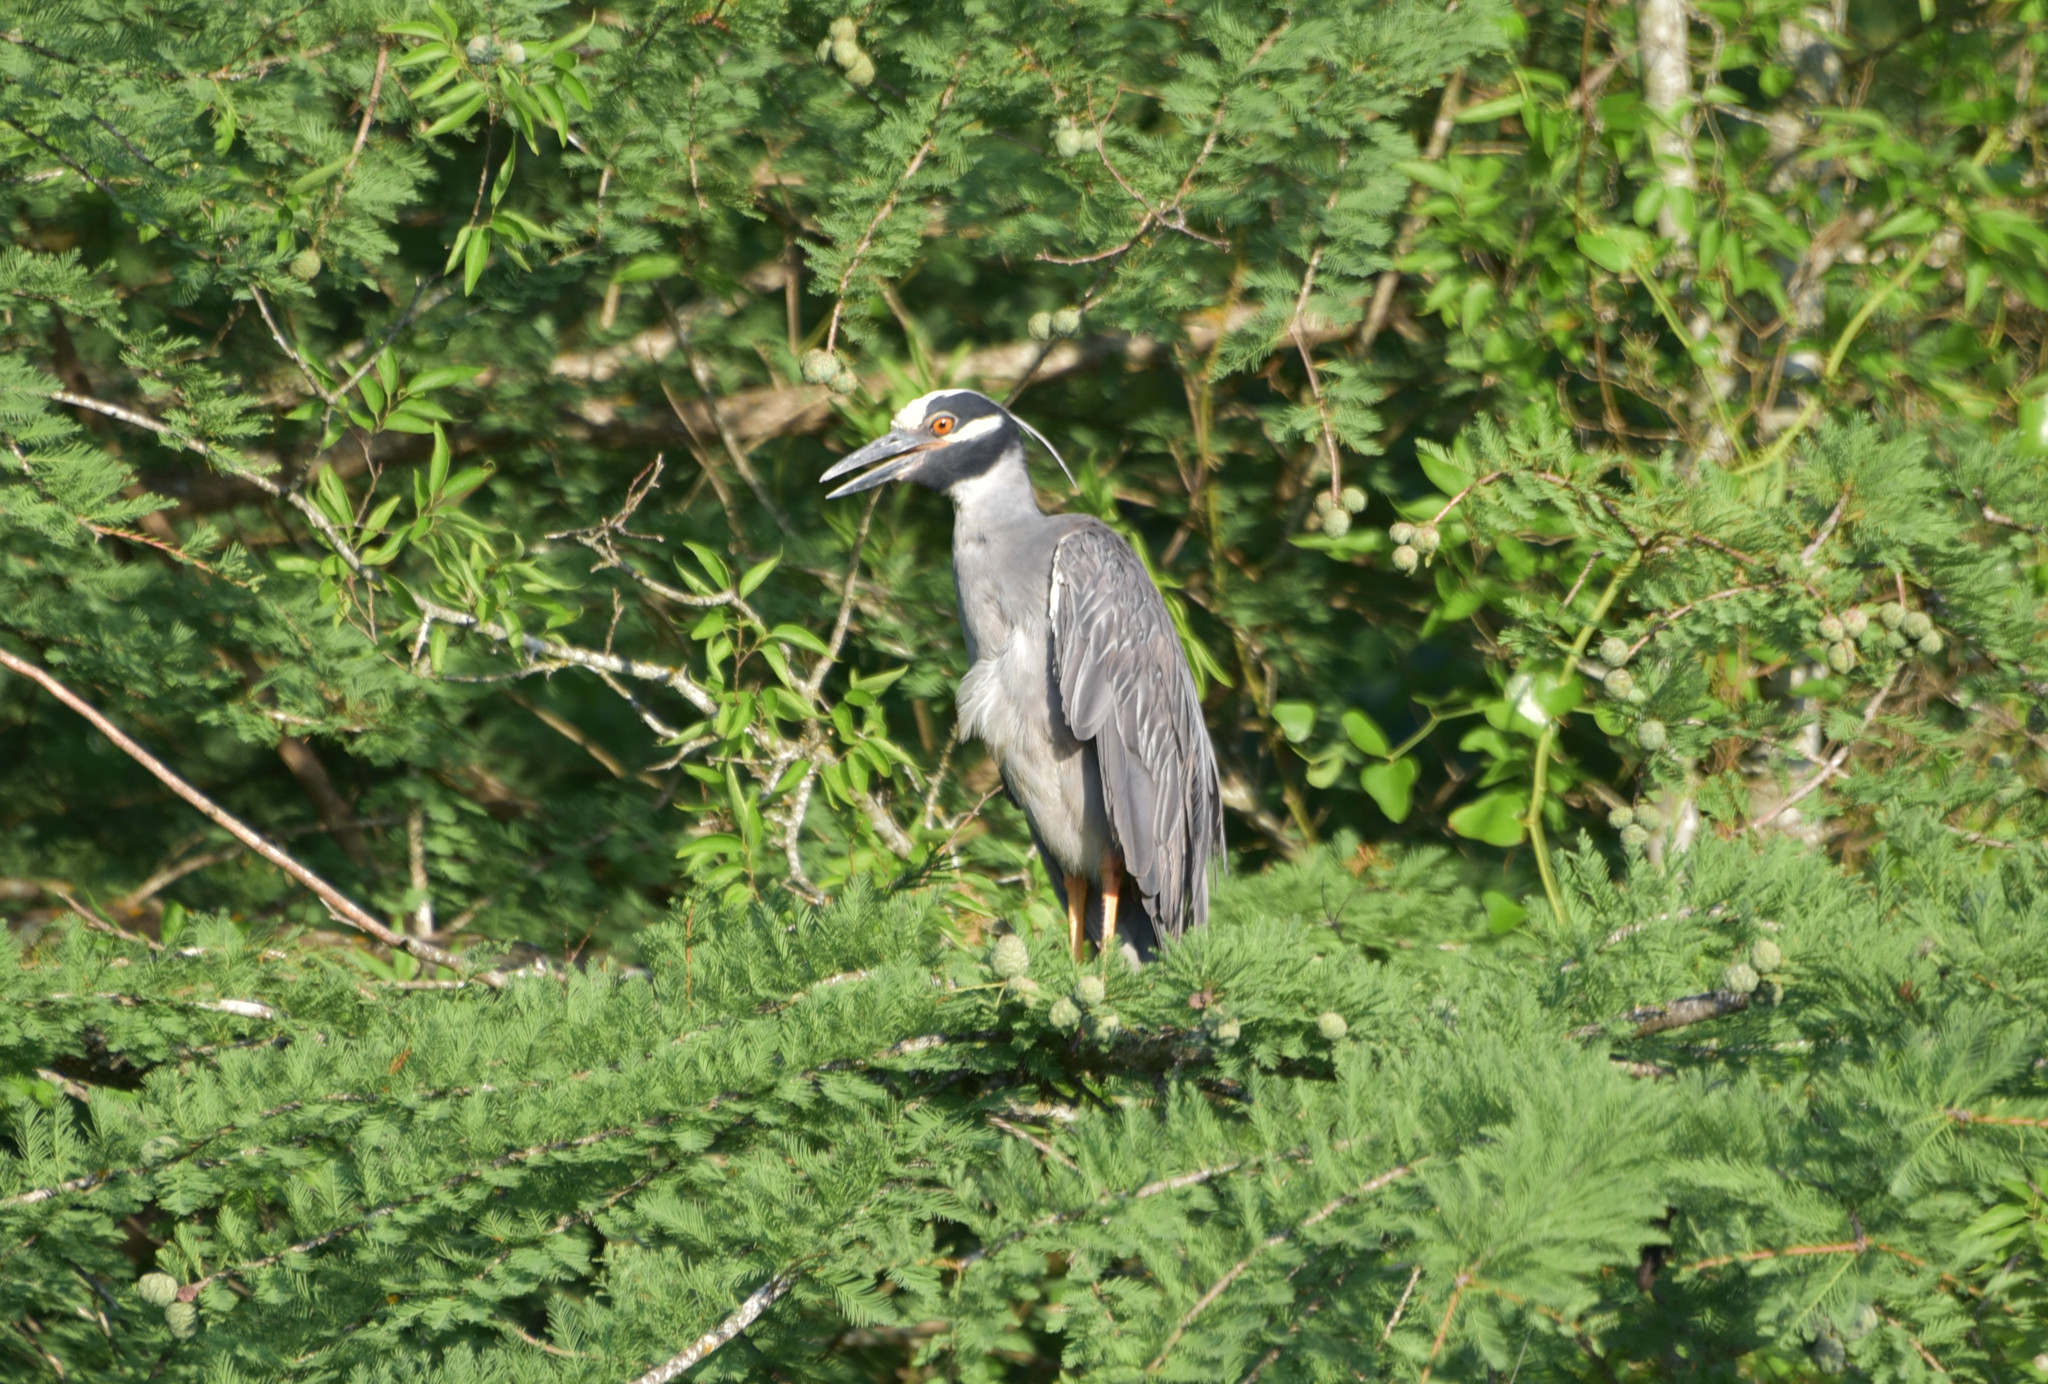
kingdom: Animalia
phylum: Chordata
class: Aves
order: Pelecaniformes
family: Ardeidae
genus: Nyctanassa
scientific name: Nyctanassa violacea
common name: Yellow-crowned night heron
